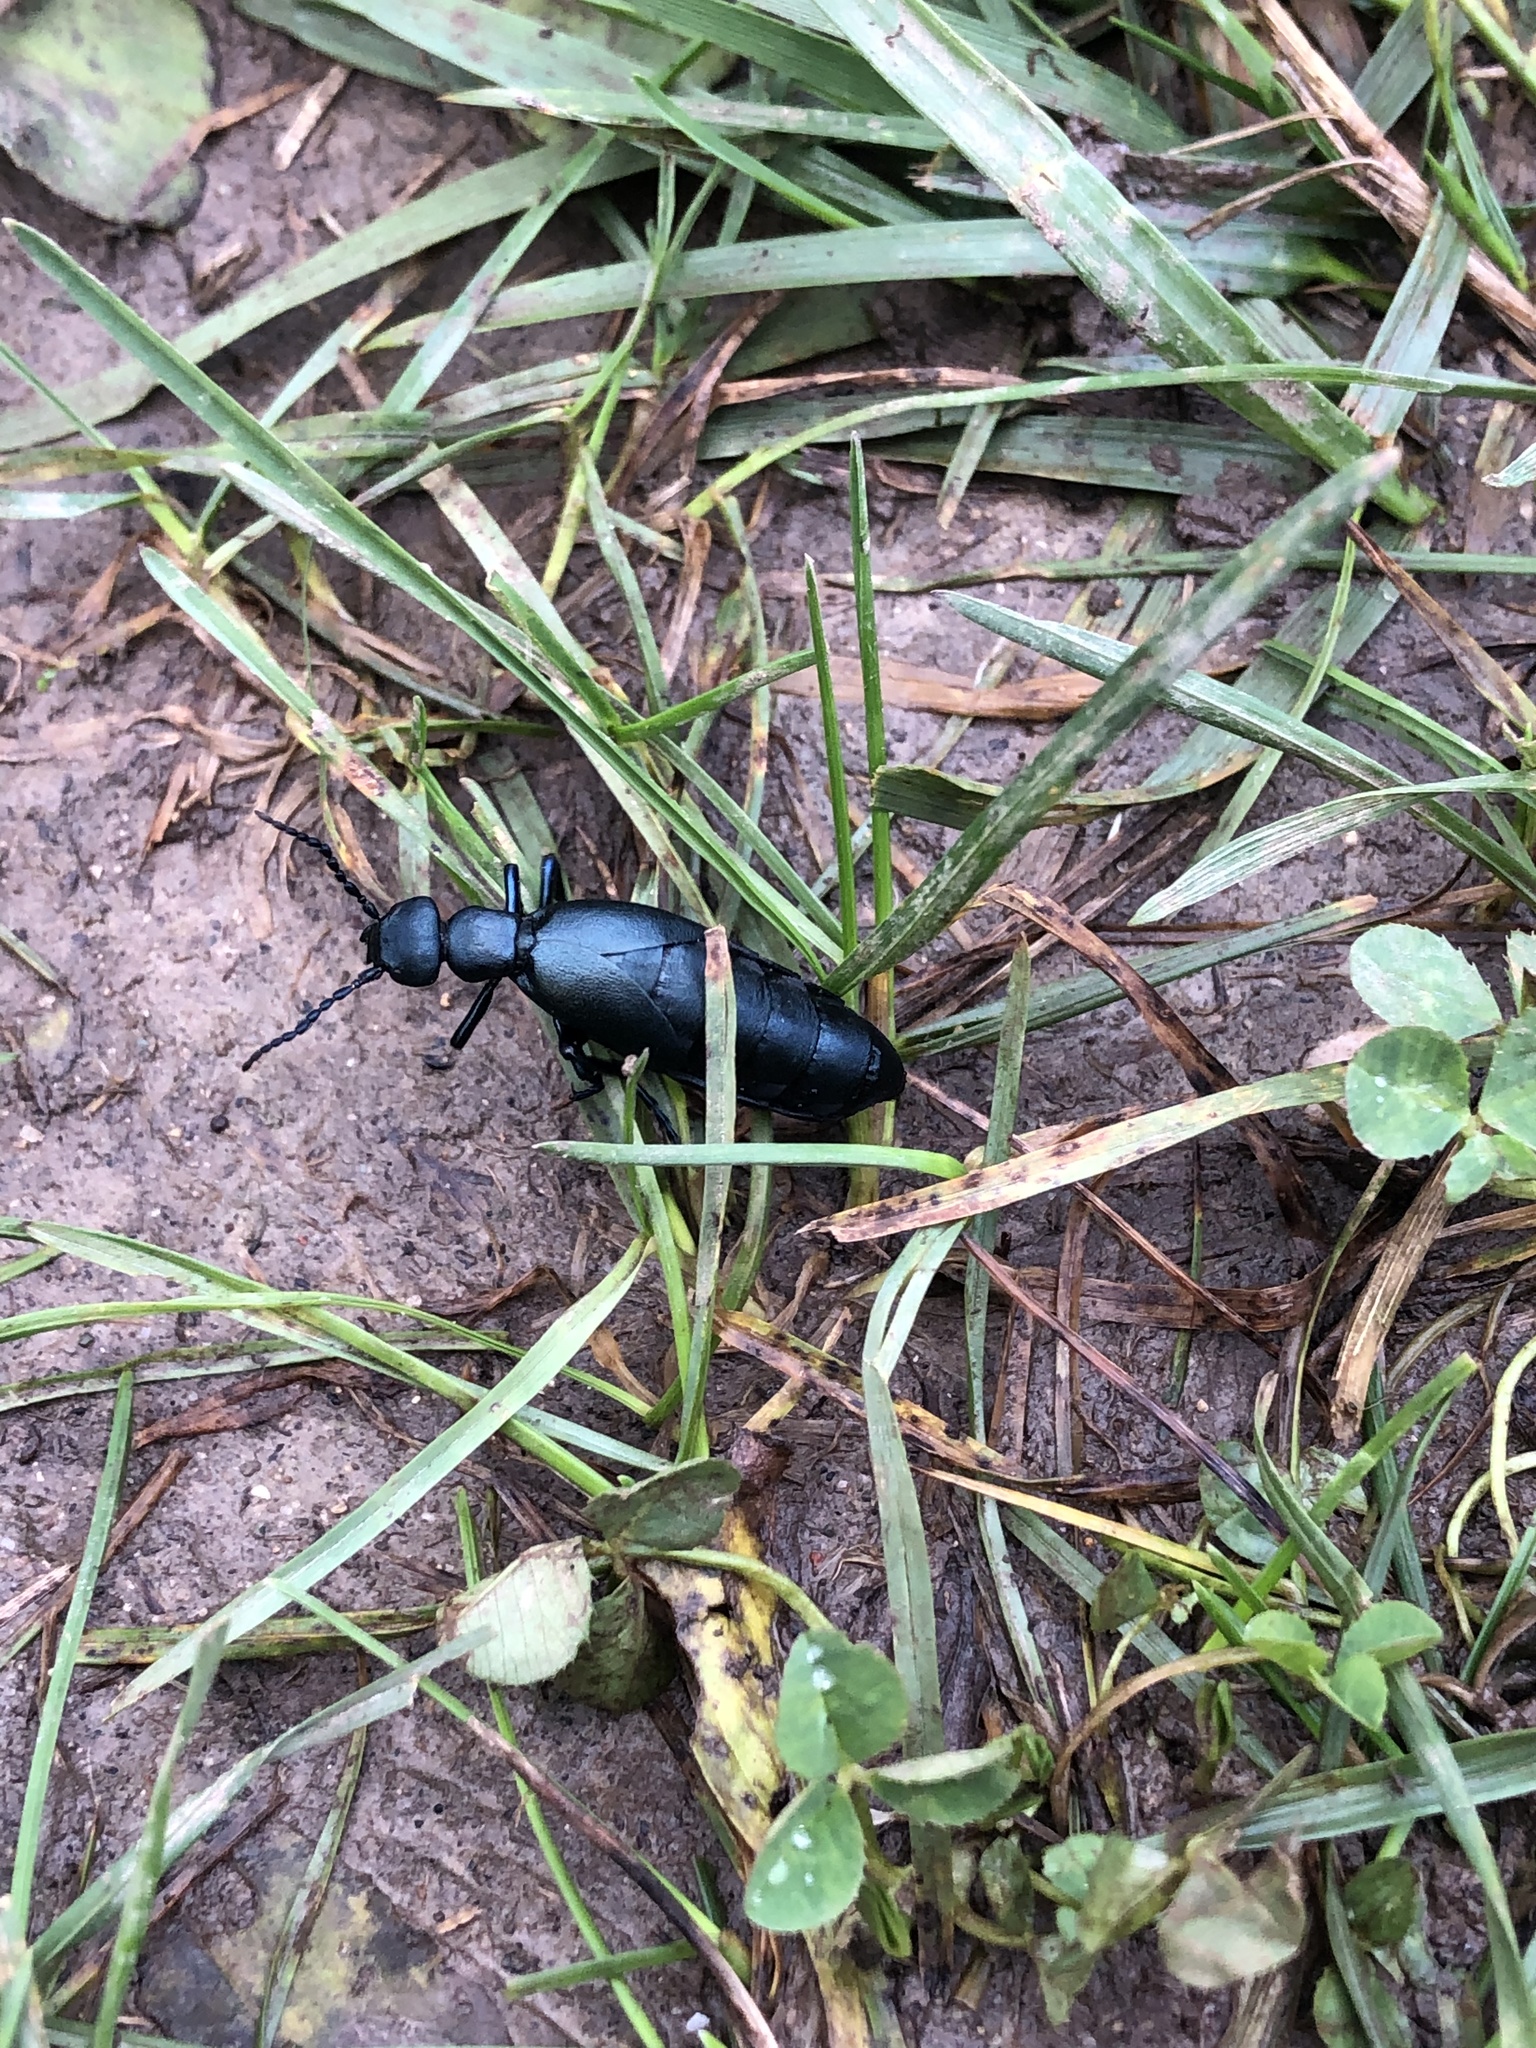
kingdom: Animalia
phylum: Arthropoda
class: Insecta
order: Coleoptera
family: Meloidae
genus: Meloe
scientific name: Meloe
